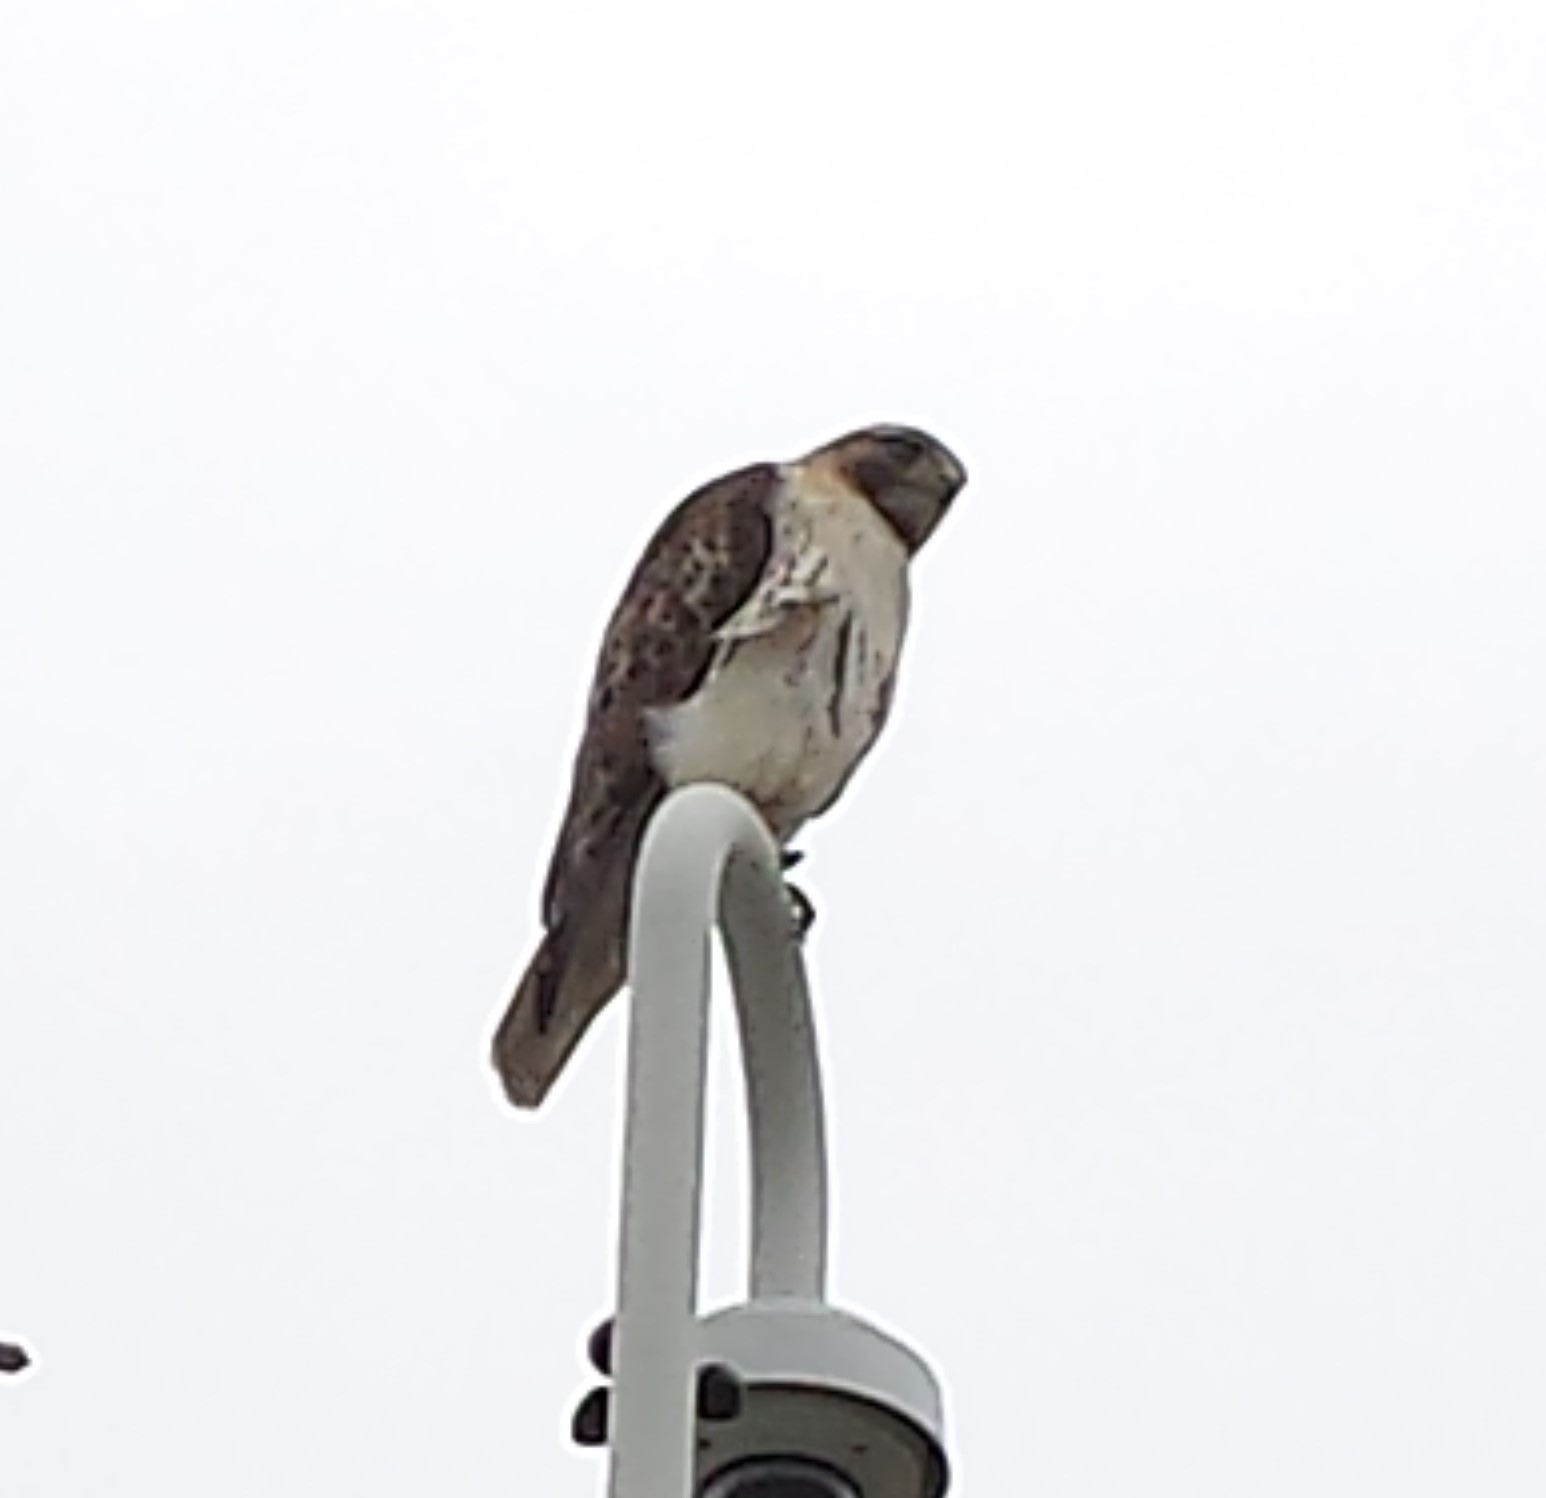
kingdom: Animalia
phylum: Chordata
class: Aves
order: Accipitriformes
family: Accipitridae
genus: Buteo
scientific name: Buteo jamaicensis
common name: Red-tailed hawk
